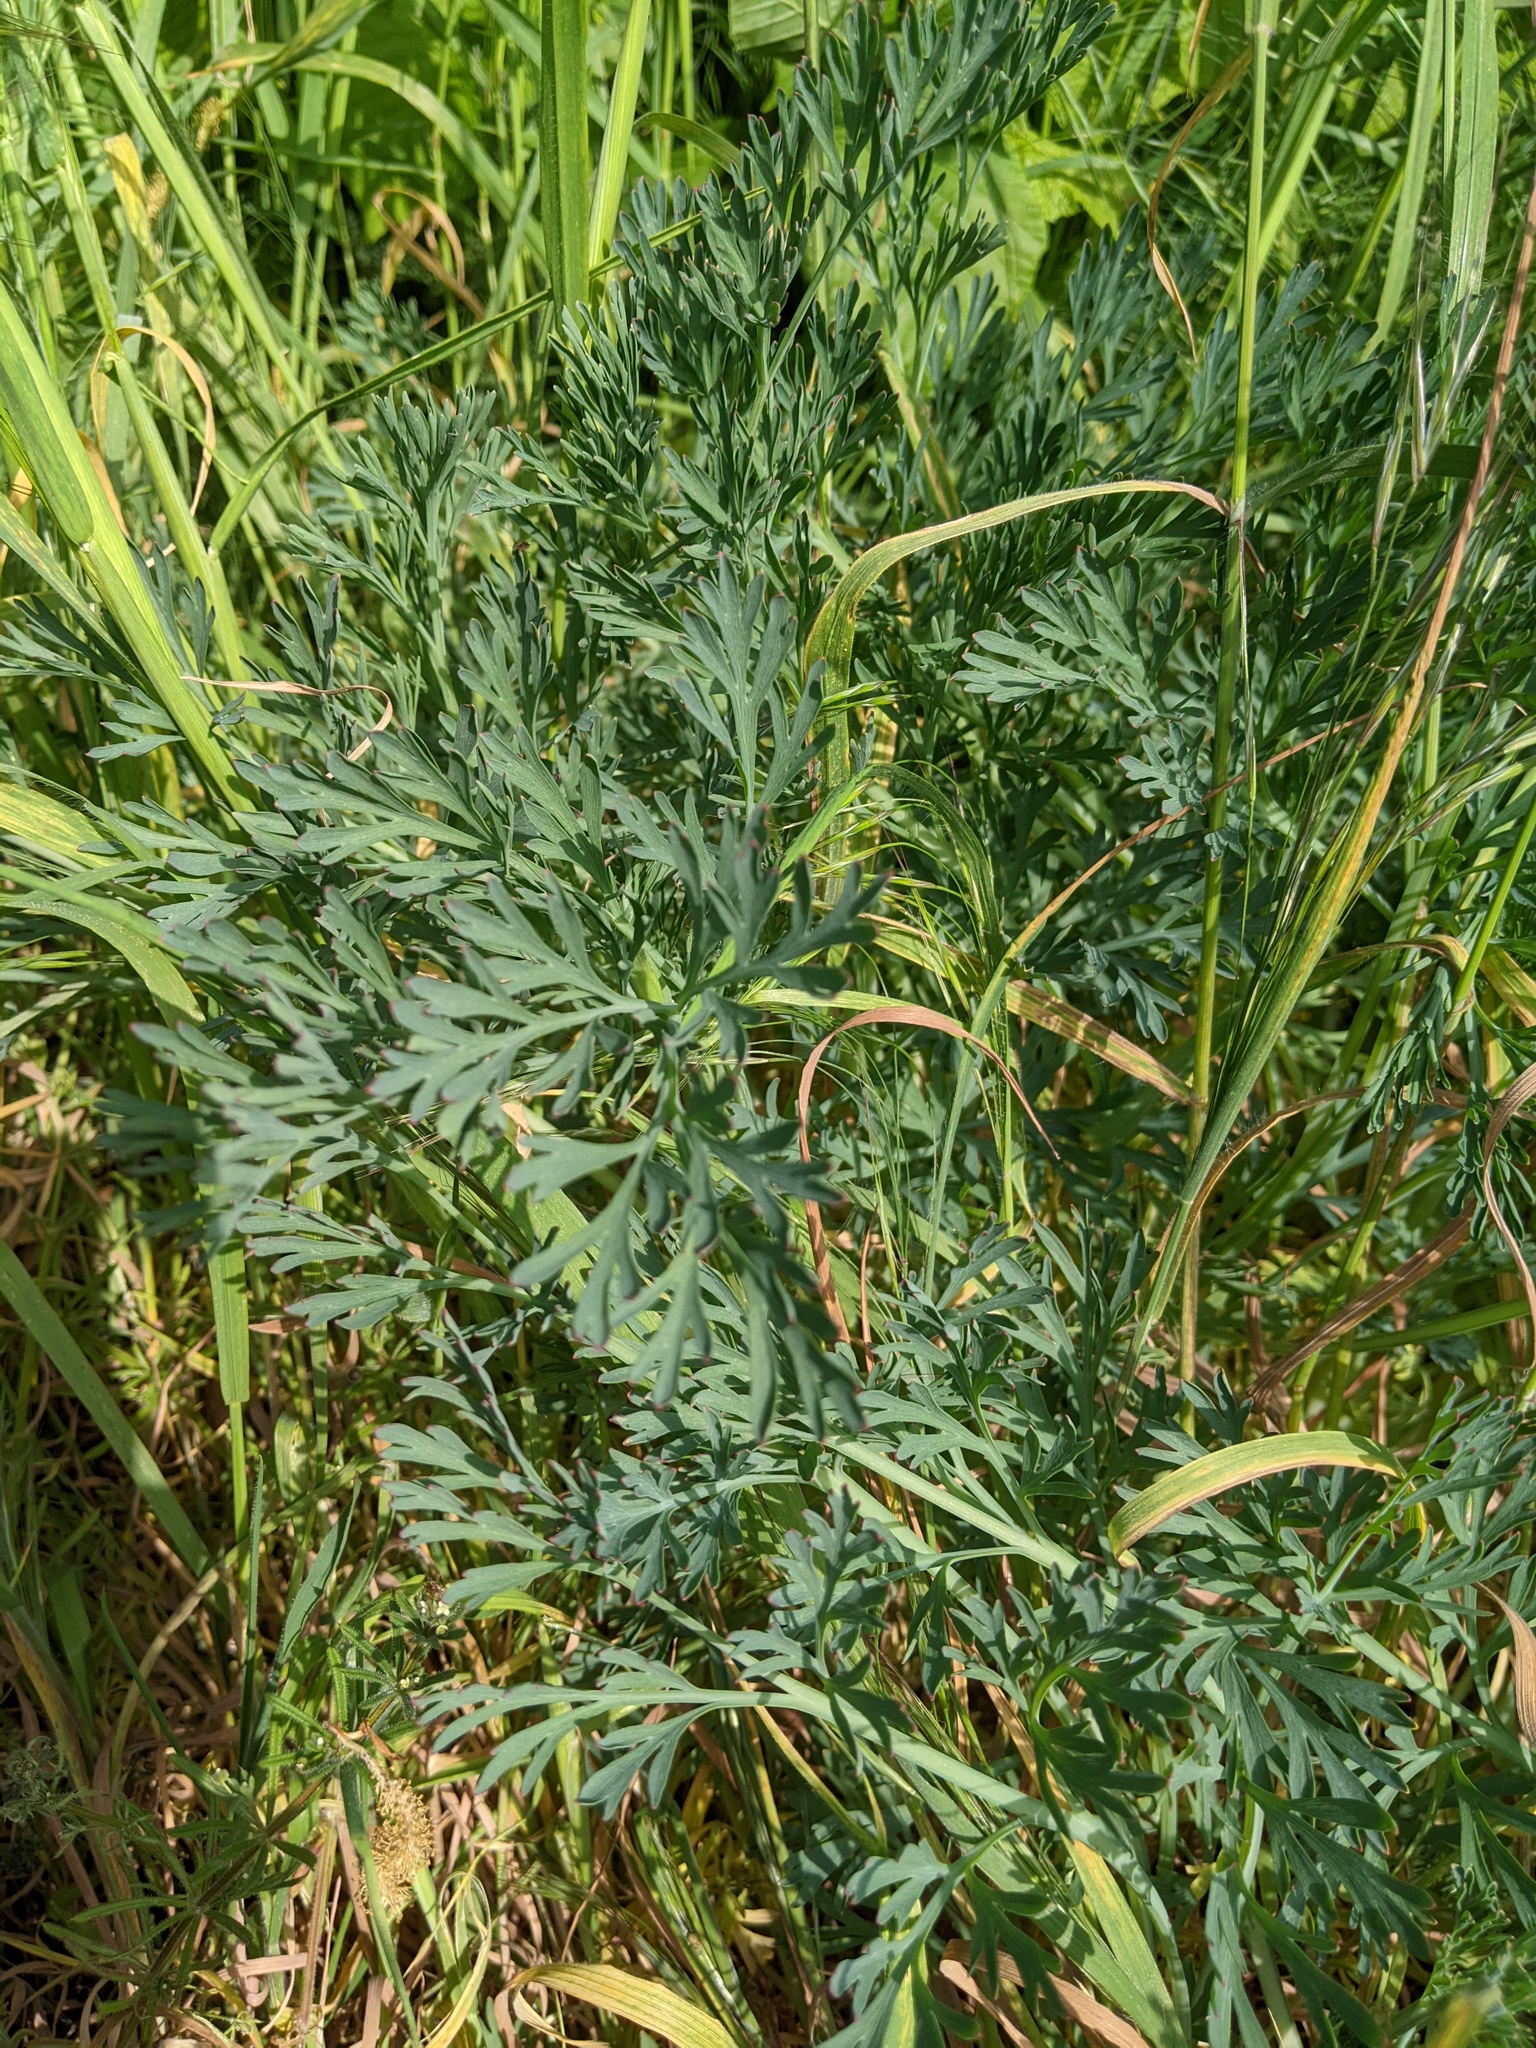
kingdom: Plantae
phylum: Tracheophyta
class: Magnoliopsida
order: Ranunculales
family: Papaveraceae
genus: Eschscholzia
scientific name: Eschscholzia californica
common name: California poppy
